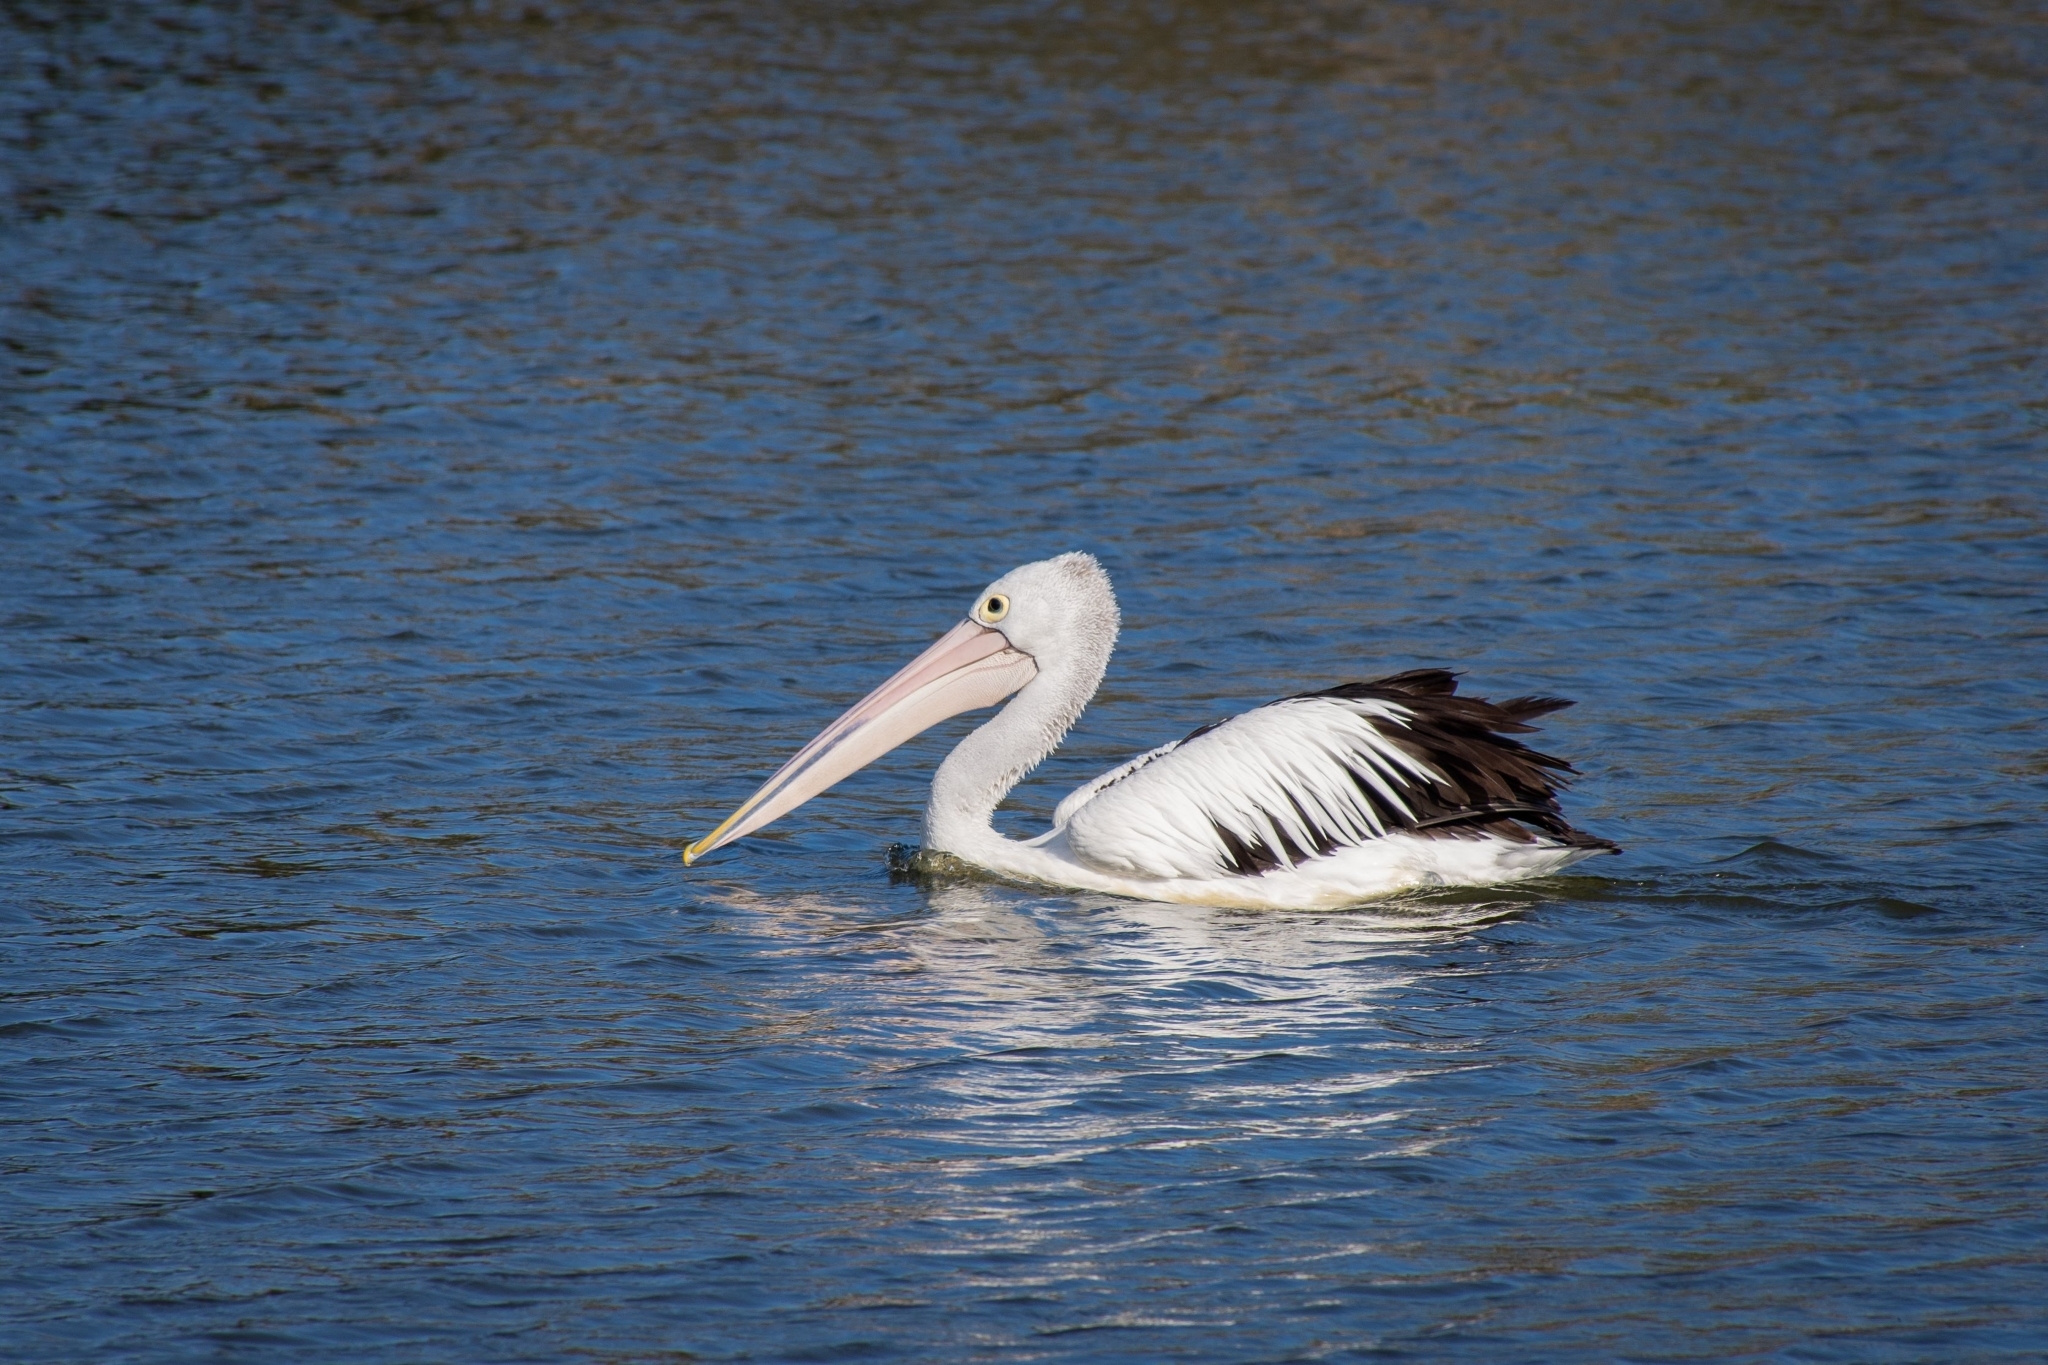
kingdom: Animalia
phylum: Chordata
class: Aves
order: Pelecaniformes
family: Pelecanidae
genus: Pelecanus
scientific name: Pelecanus conspicillatus
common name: Australian pelican
